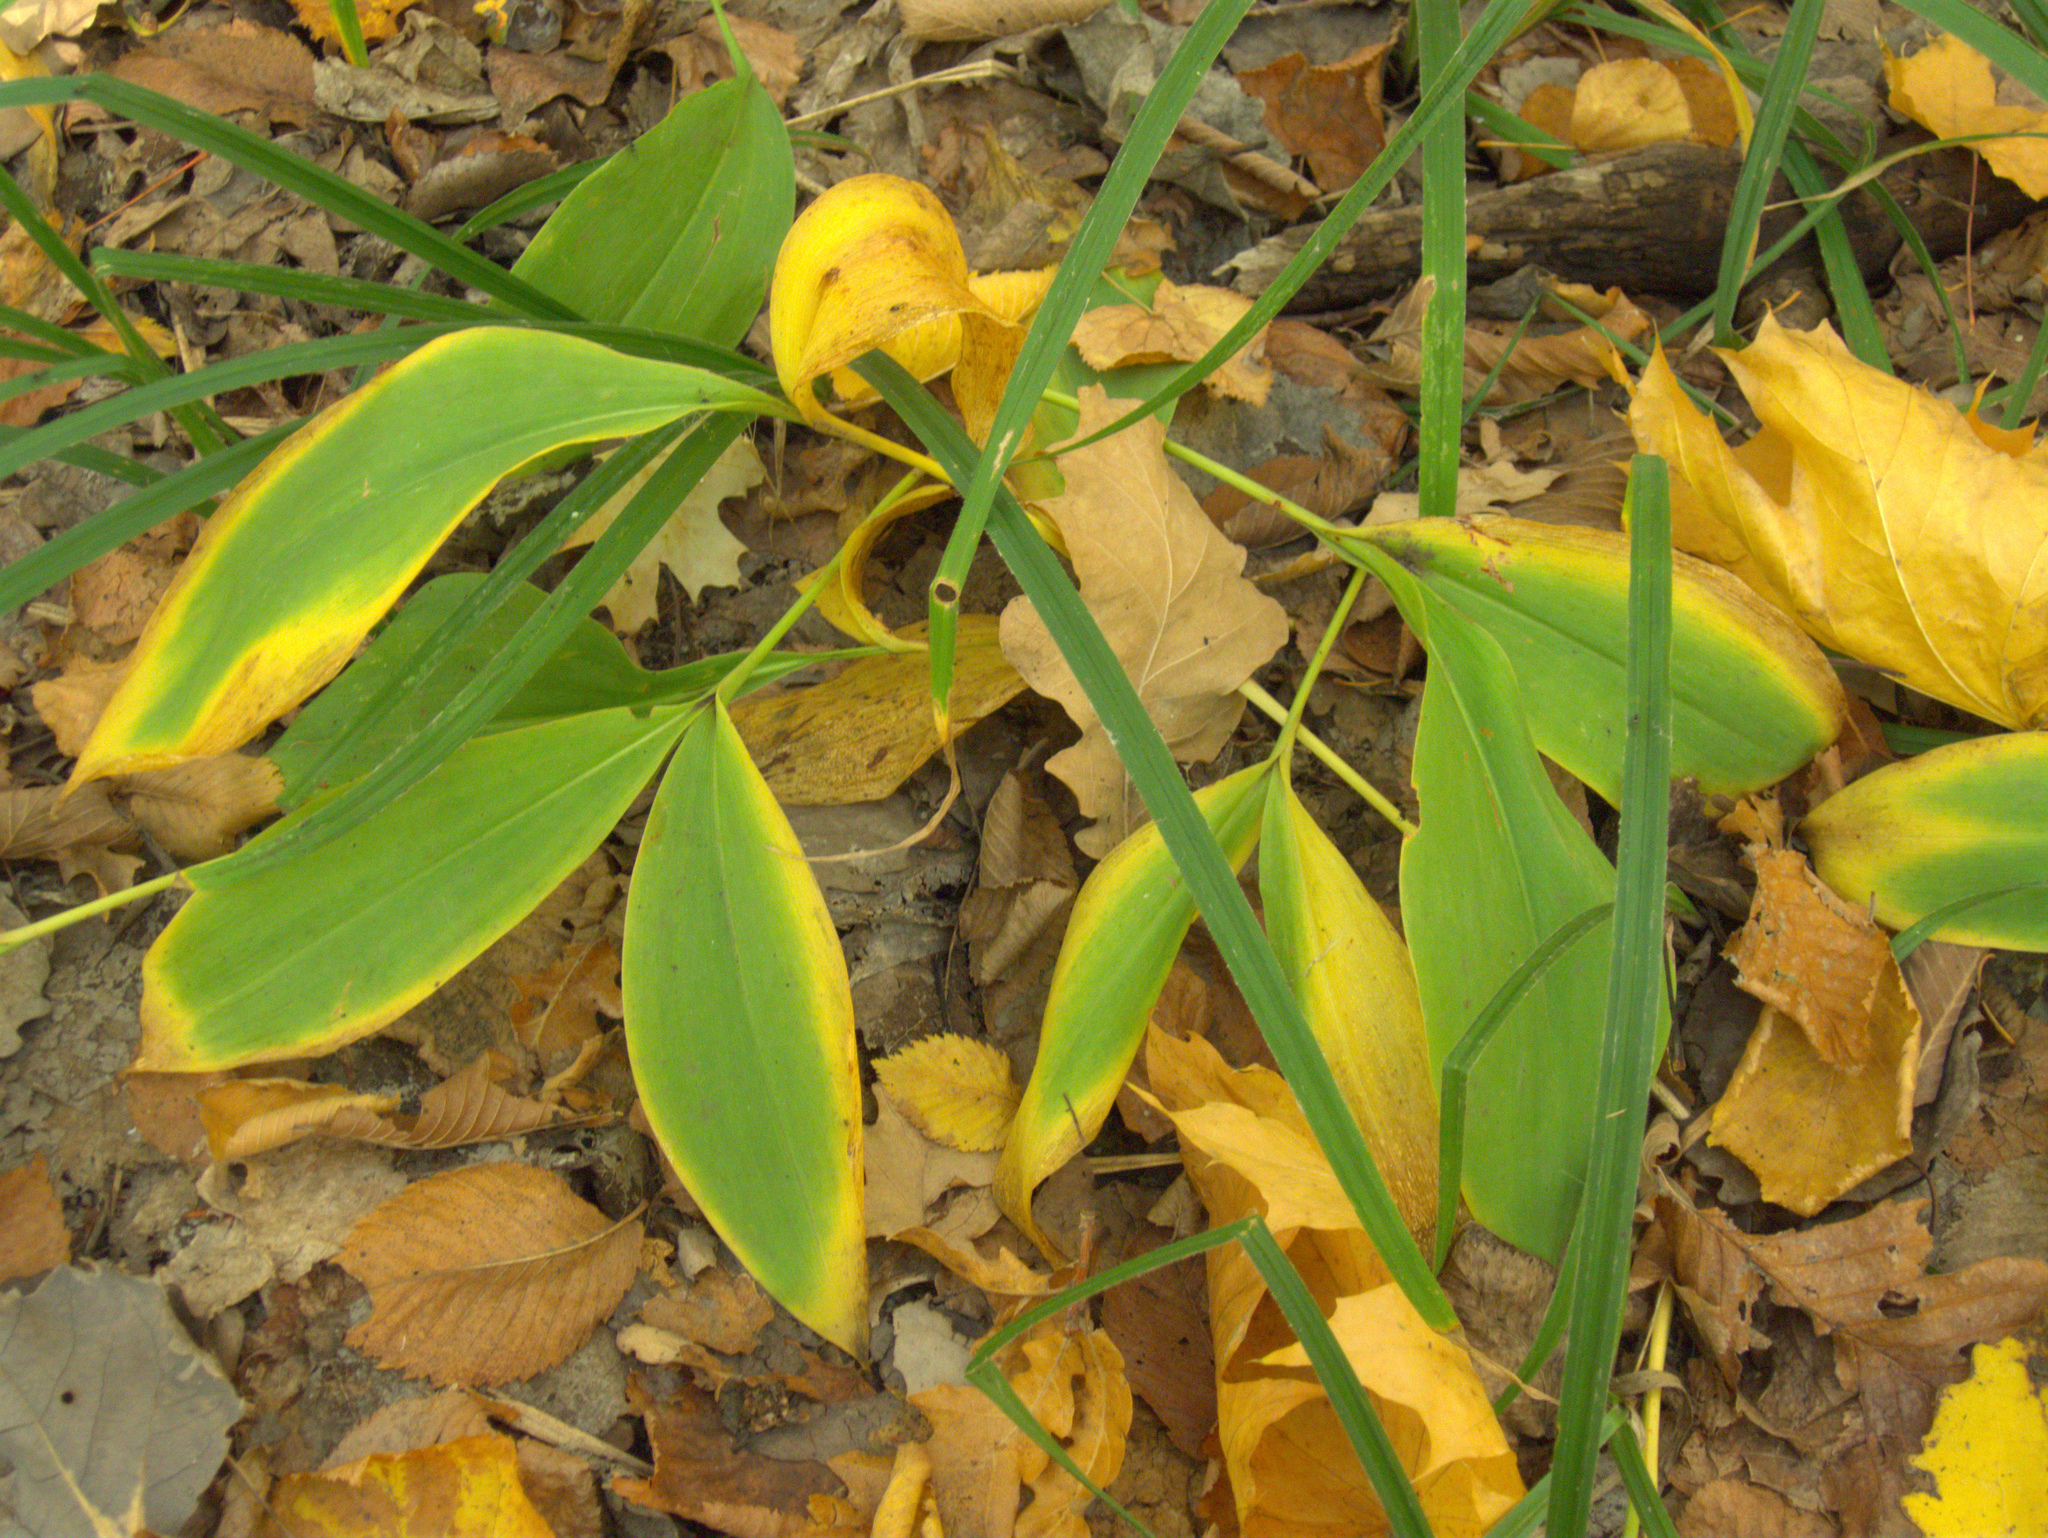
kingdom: Plantae
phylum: Tracheophyta
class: Liliopsida
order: Asparagales
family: Asparagaceae
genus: Convallaria
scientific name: Convallaria majalis
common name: Lily-of-the-valley
